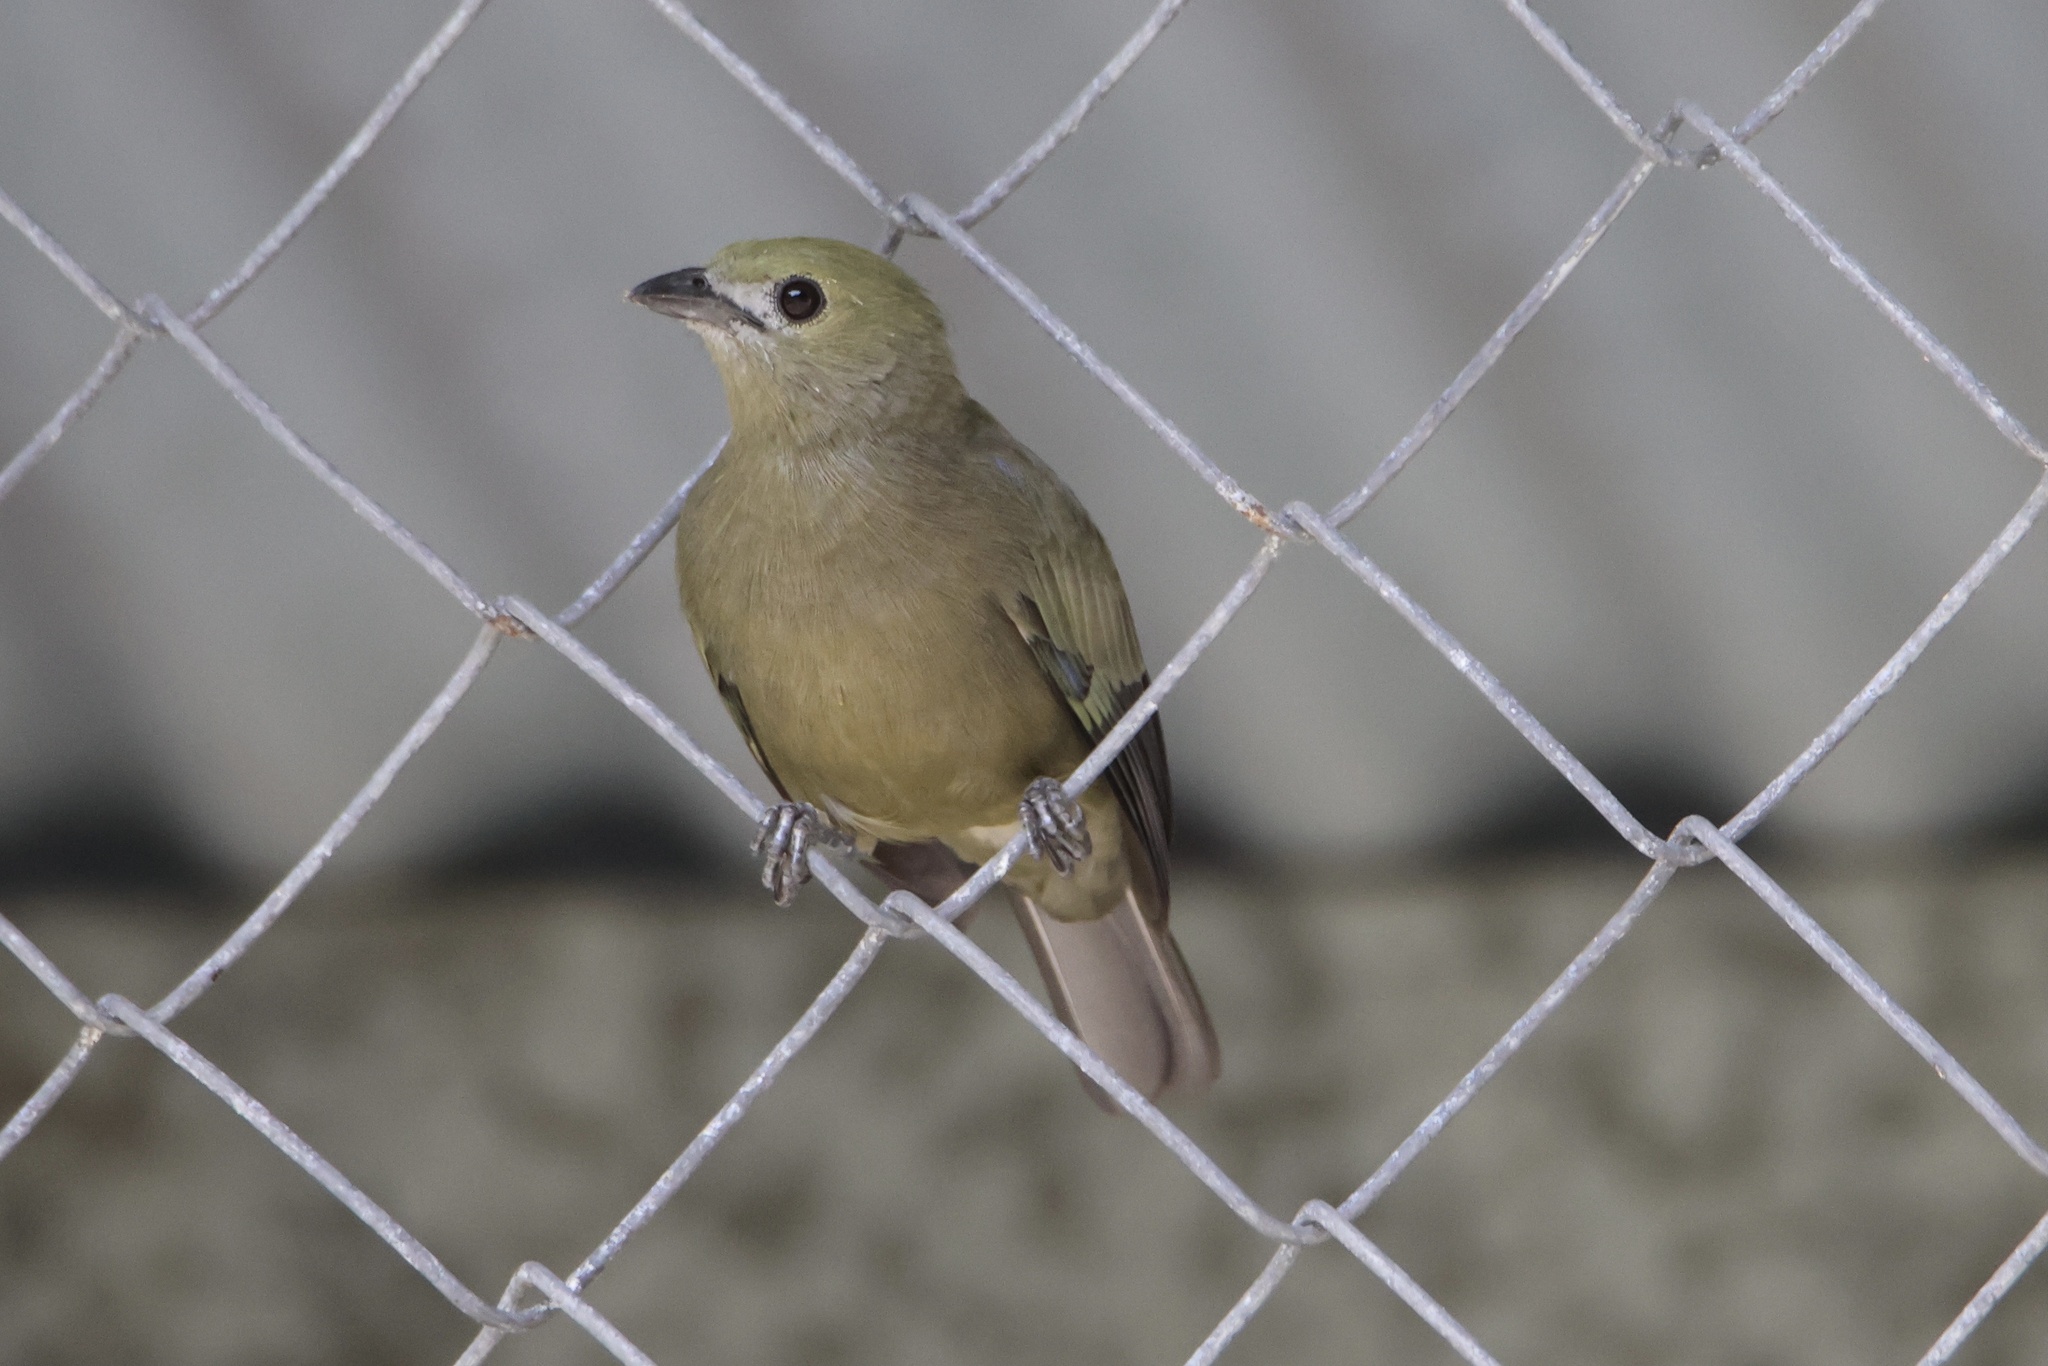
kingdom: Animalia
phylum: Chordata
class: Aves
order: Passeriformes
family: Thraupidae
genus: Thraupis
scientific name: Thraupis palmarum
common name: Palm tanager
